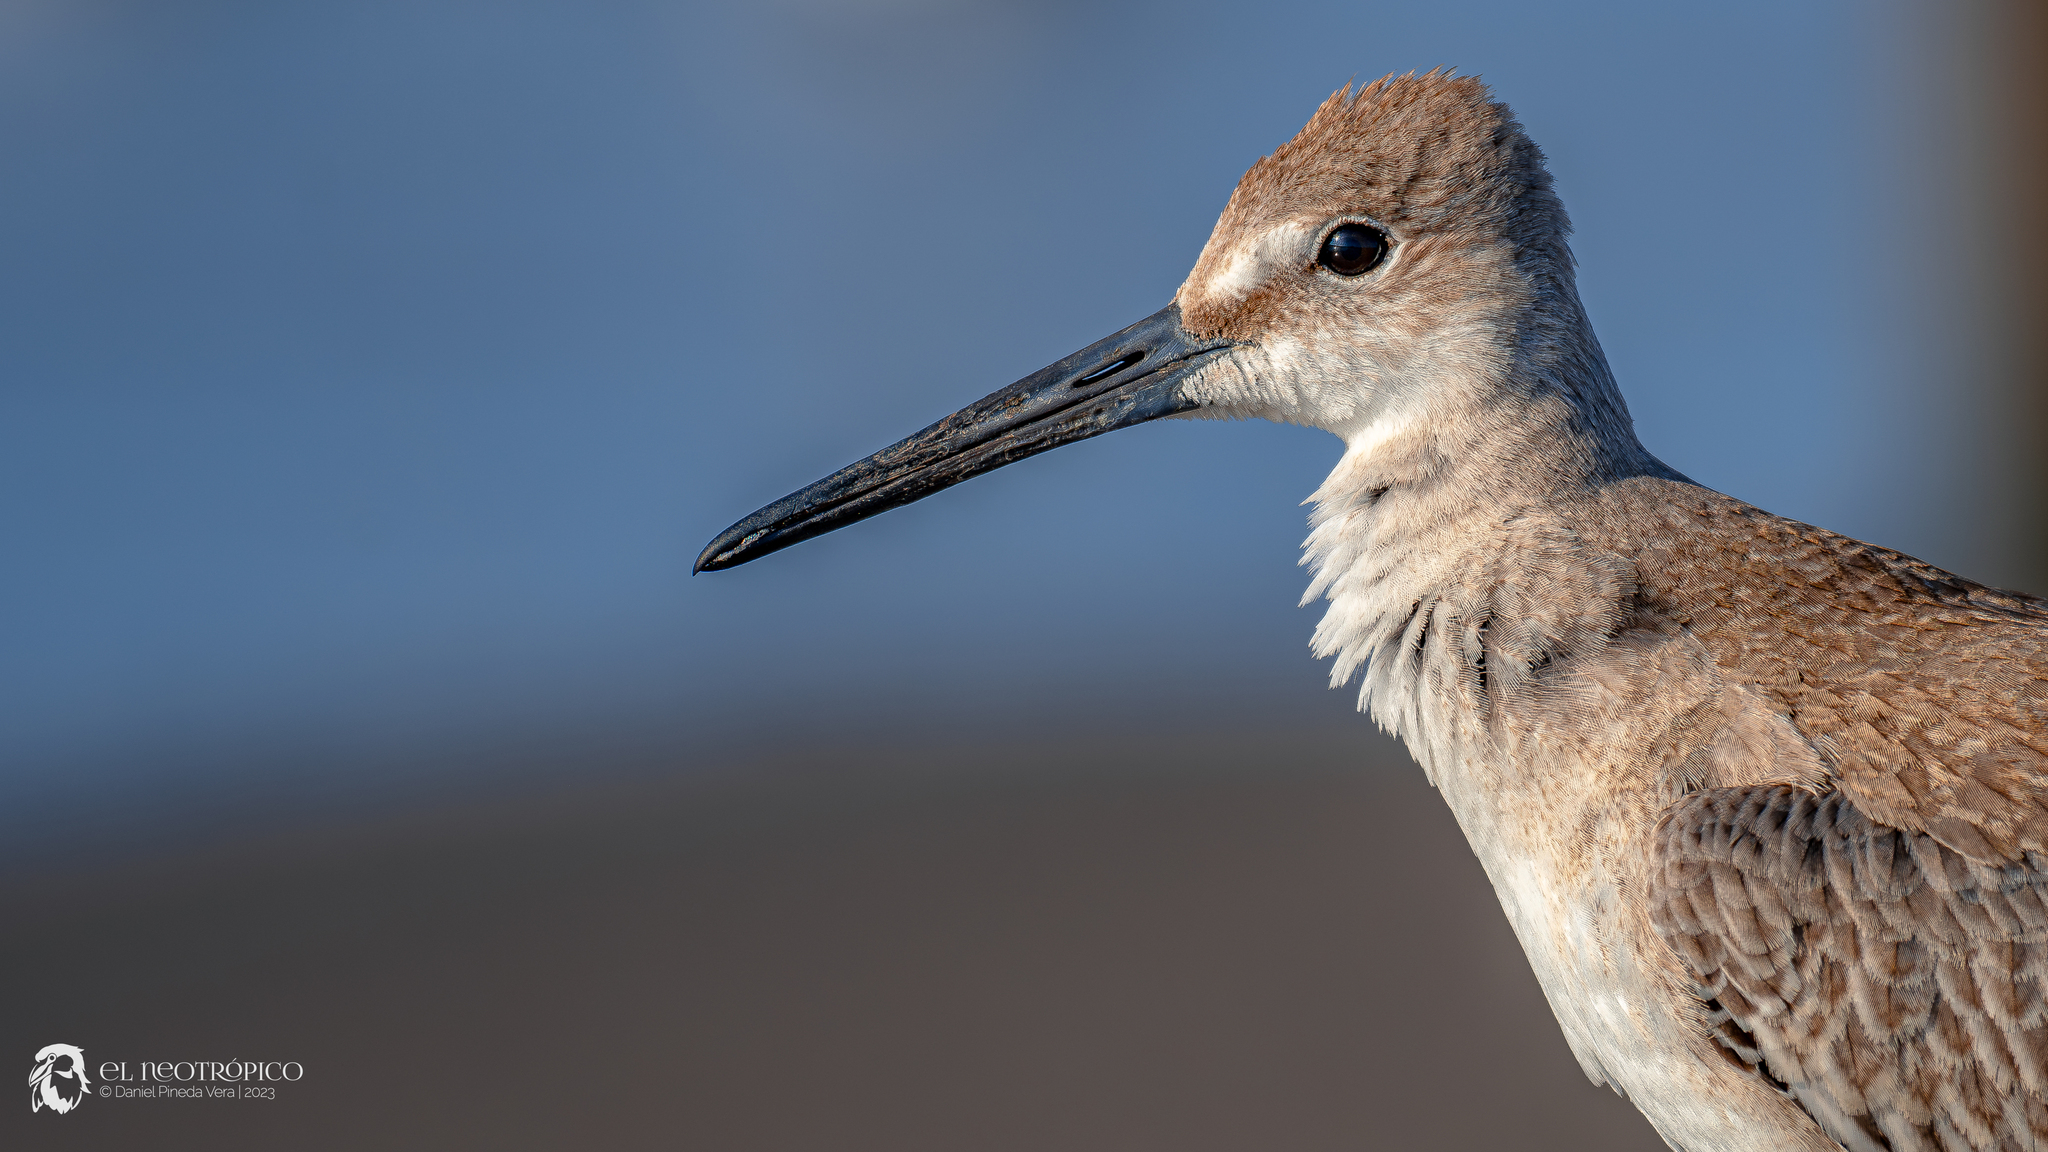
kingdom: Animalia
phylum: Chordata
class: Aves
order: Charadriiformes
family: Scolopacidae
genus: Tringa
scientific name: Tringa semipalmata
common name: Willet
